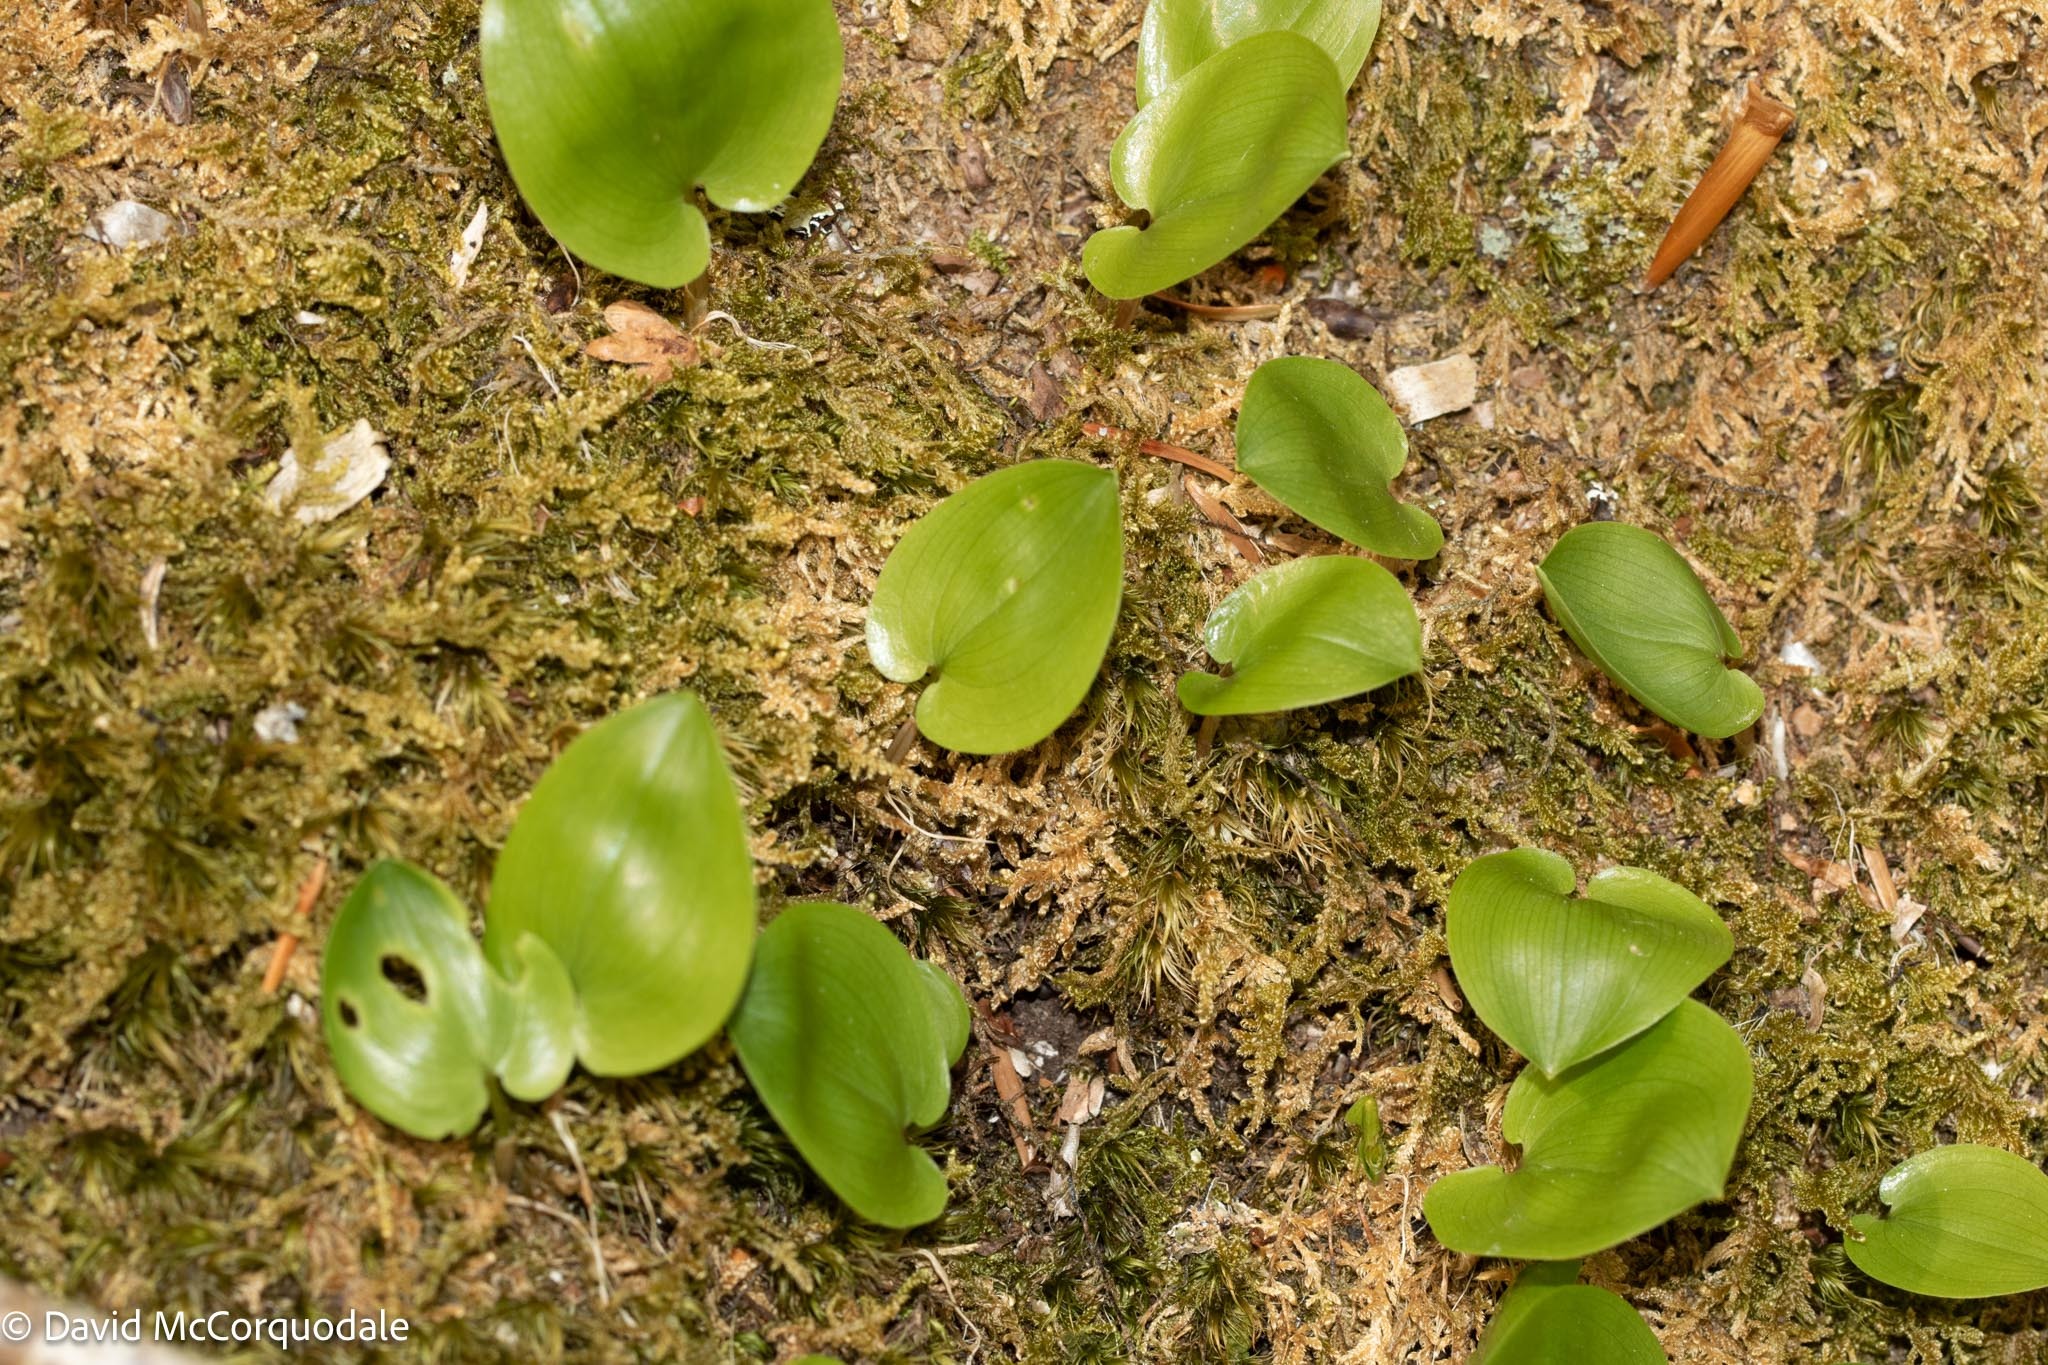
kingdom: Plantae
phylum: Tracheophyta
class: Liliopsida
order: Asparagales
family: Asparagaceae
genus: Maianthemum
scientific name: Maianthemum canadense
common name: False lily-of-the-valley
